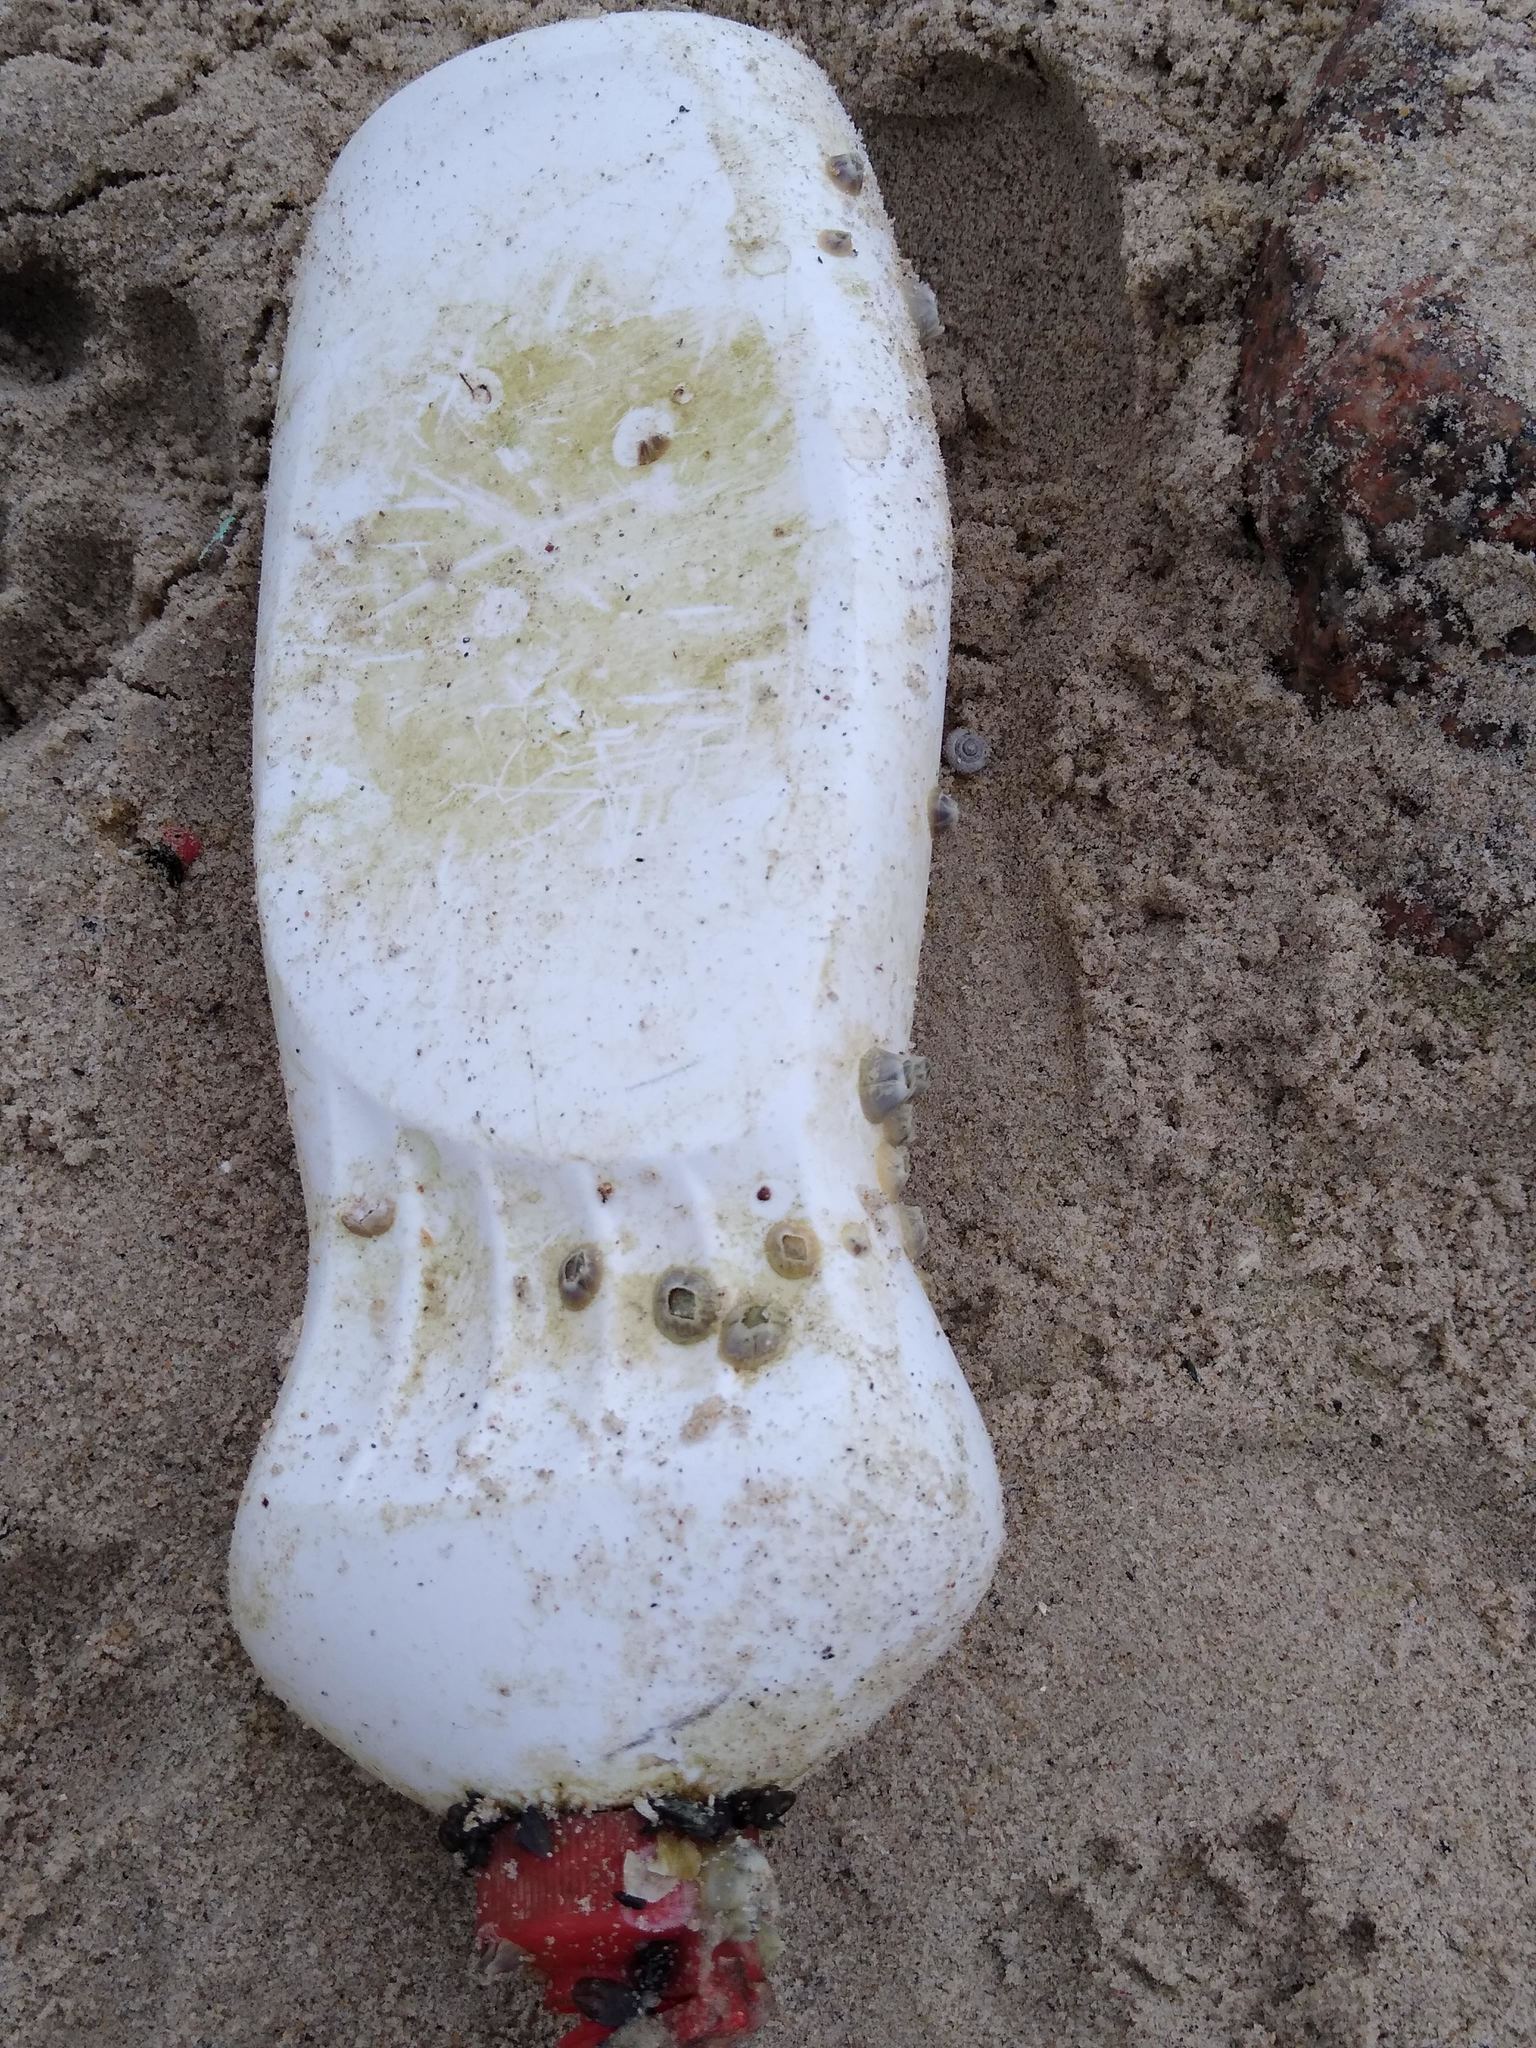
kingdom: Animalia
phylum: Arthropoda
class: Maxillopoda
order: Sessilia
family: Balanidae
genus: Amphibalanus
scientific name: Amphibalanus improvisus
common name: Bay barnacle
